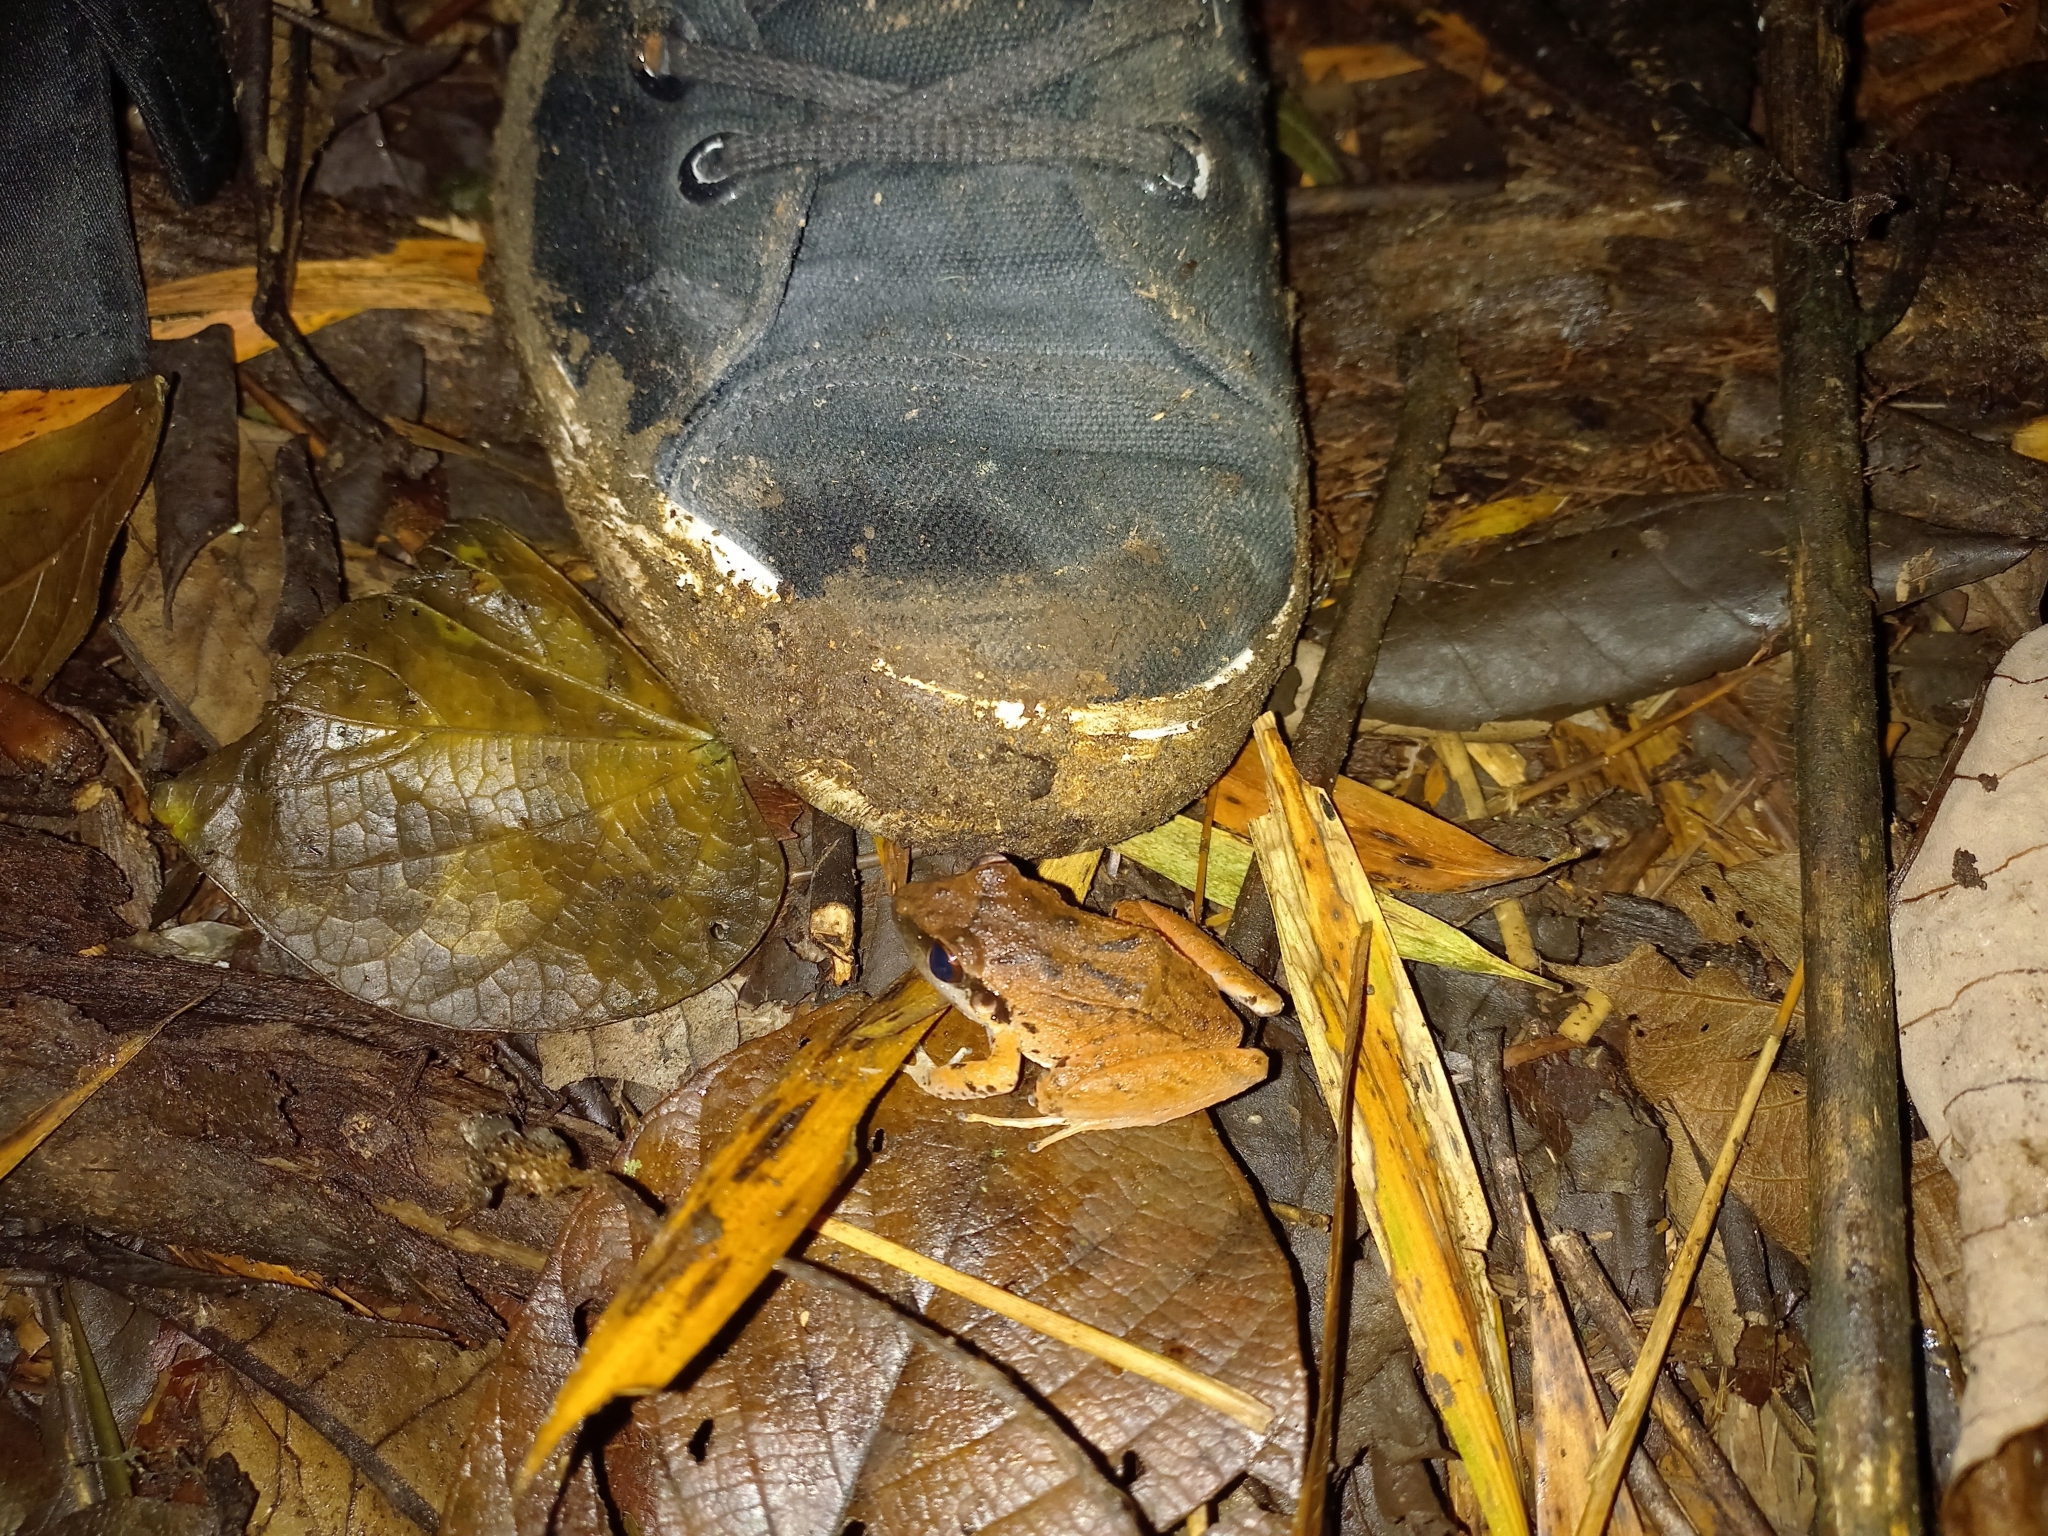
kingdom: Animalia
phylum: Chordata
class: Amphibia
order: Anura
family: Craugastoridae
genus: Pristimantis
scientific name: Pristimantis achatinus
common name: Cachabi robber frog
